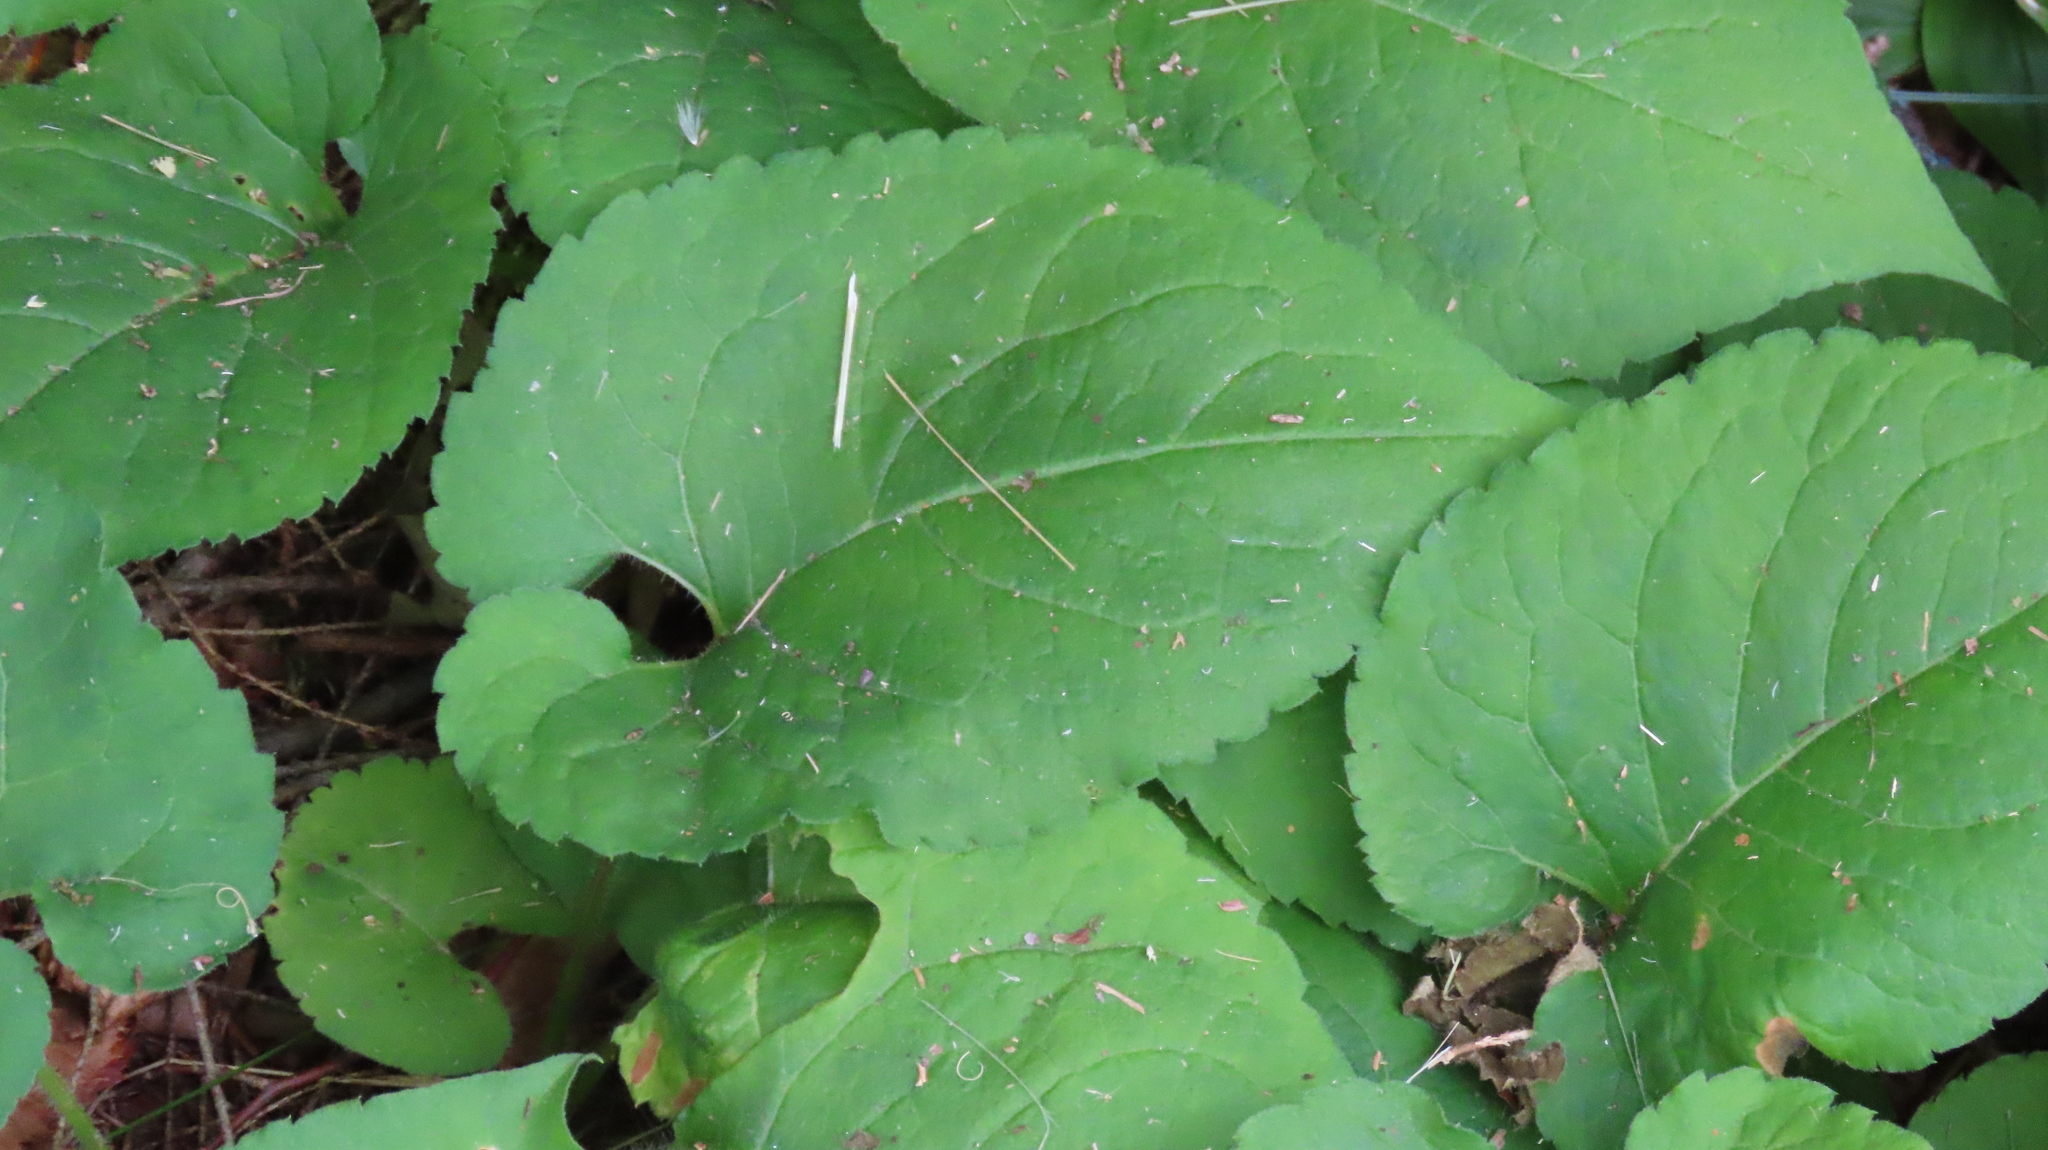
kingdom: Plantae
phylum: Tracheophyta
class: Magnoliopsida
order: Asterales
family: Asteraceae
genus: Eurybia
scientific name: Eurybia macrophylla
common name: Big-leaved aster
